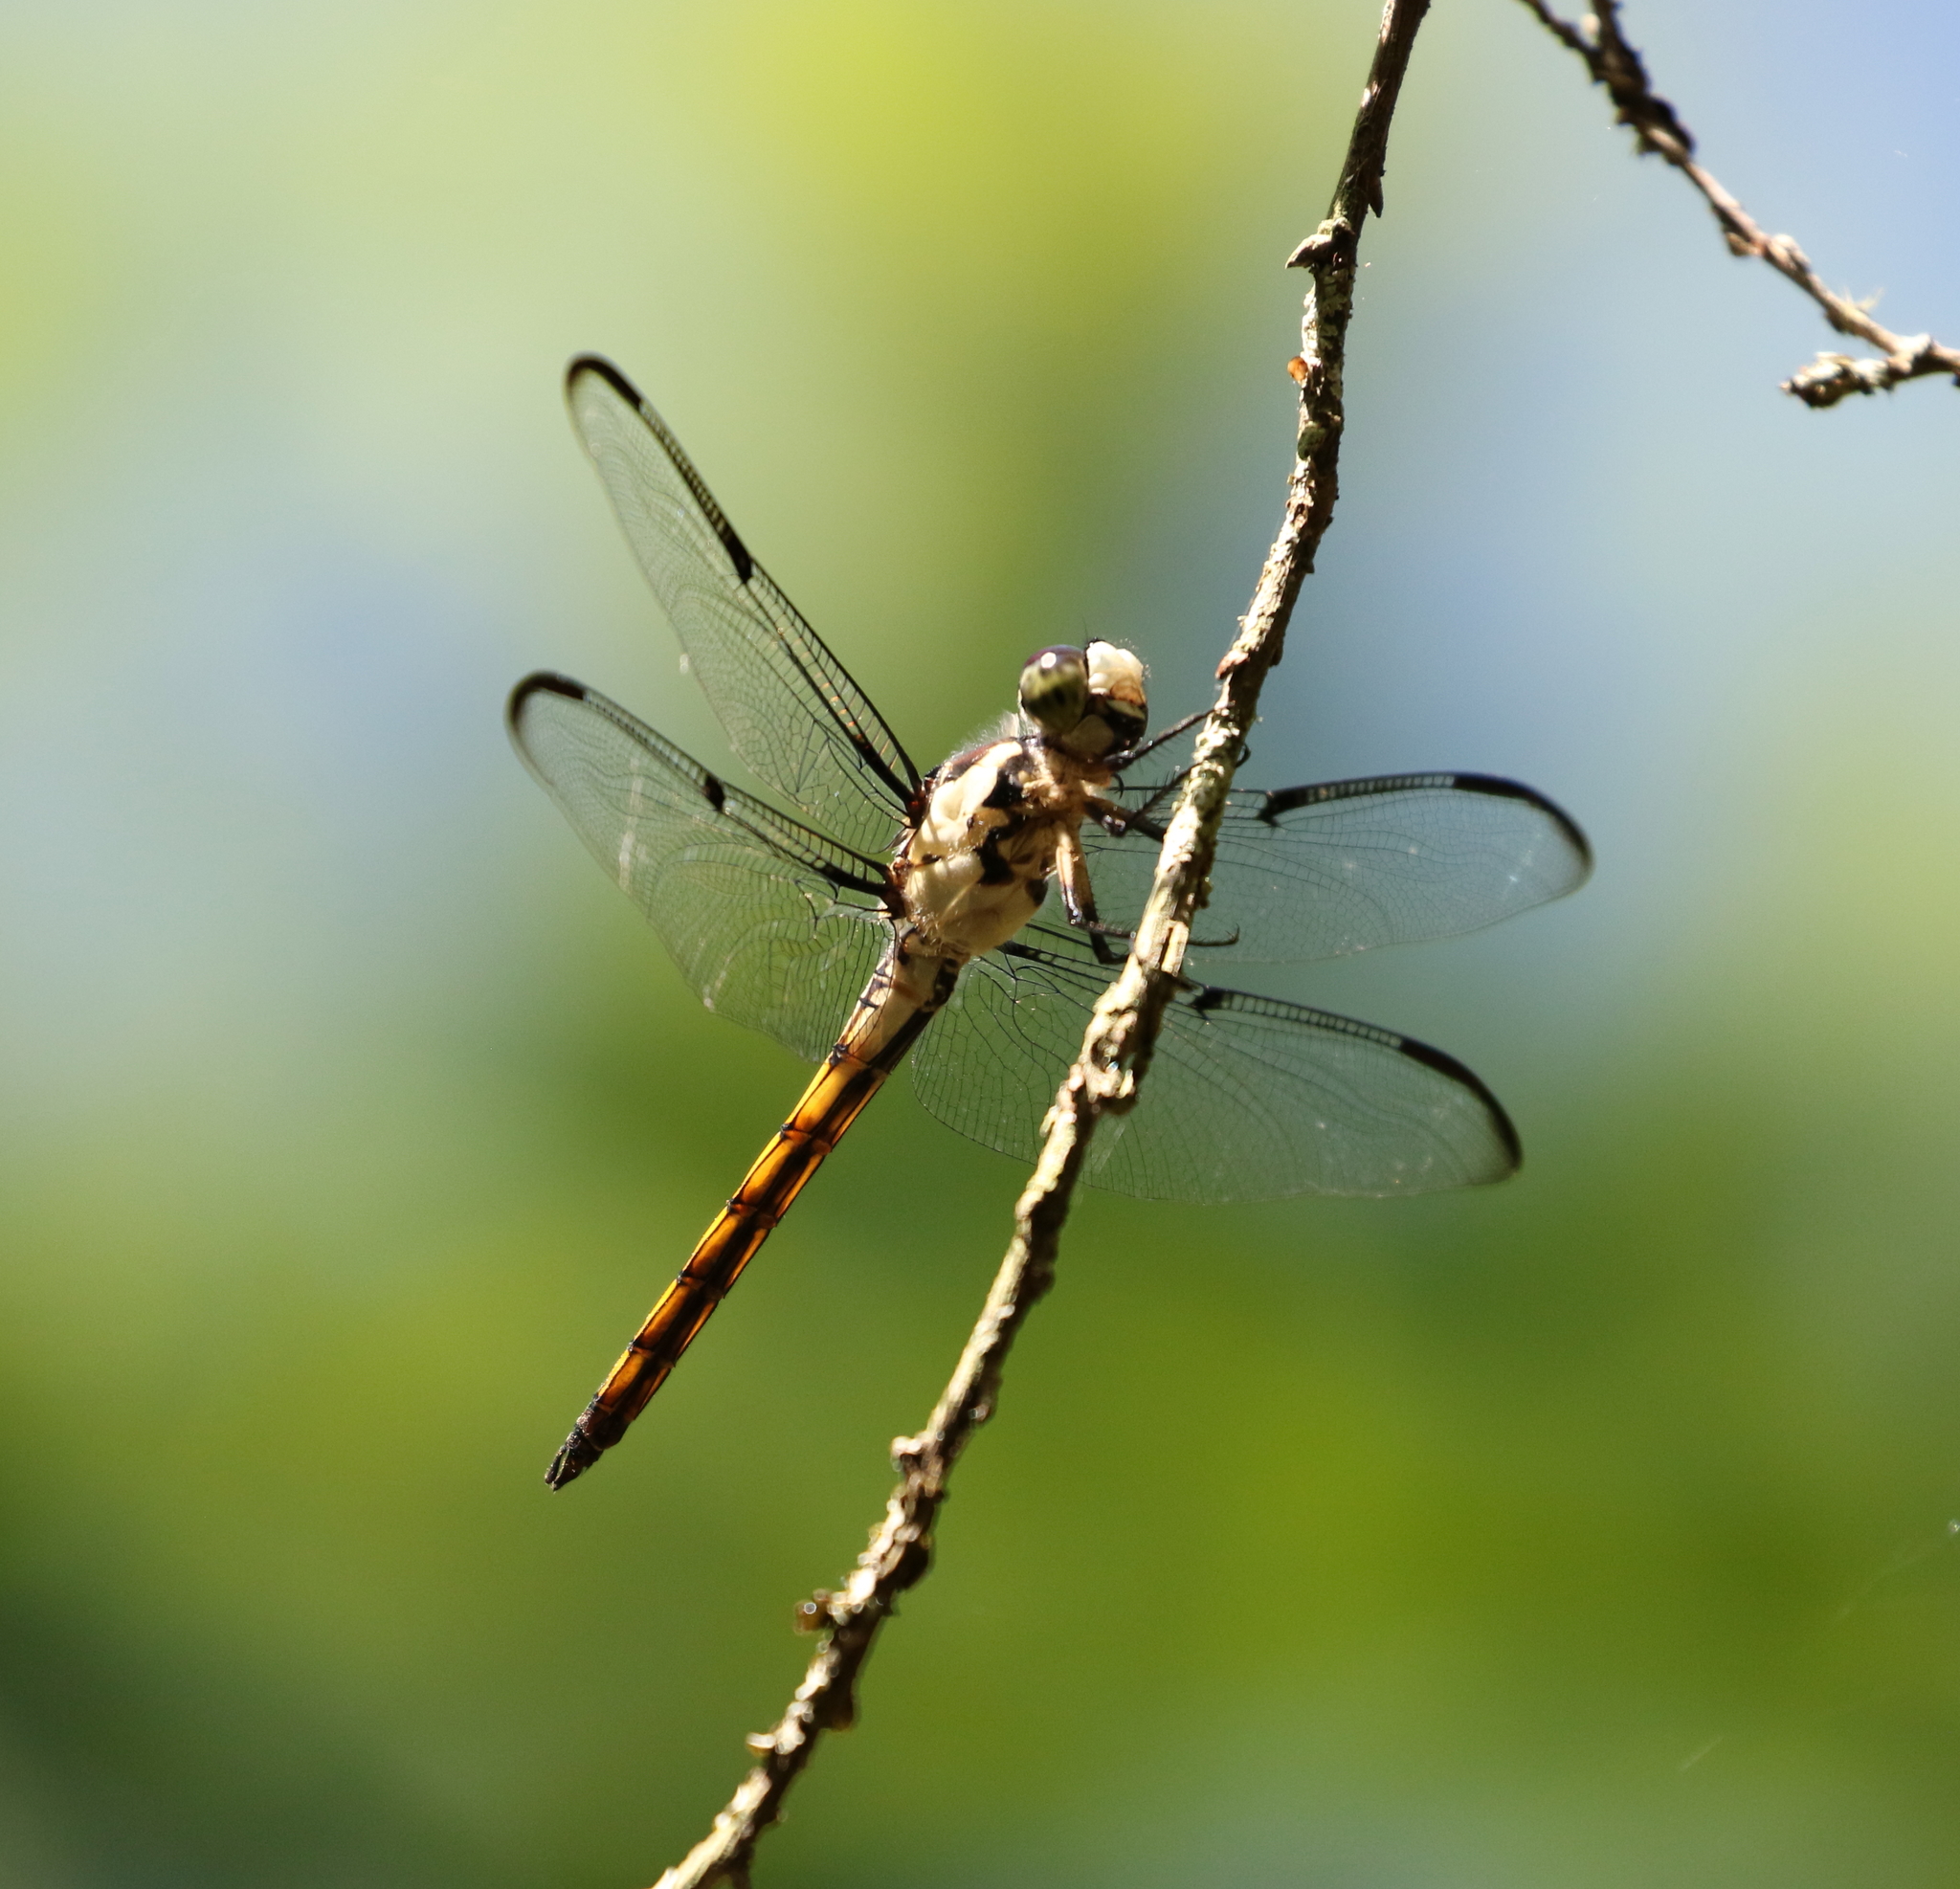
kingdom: Animalia
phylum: Arthropoda
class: Insecta
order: Odonata
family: Libellulidae
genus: Libellula
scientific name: Libellula vibrans
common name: Great blue skimmer
